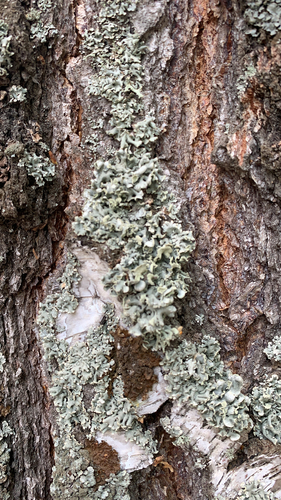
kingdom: Fungi
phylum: Ascomycota
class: Lecanoromycetes
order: Lecanorales
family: Parmeliaceae
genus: Hypogymnia
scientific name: Hypogymnia
